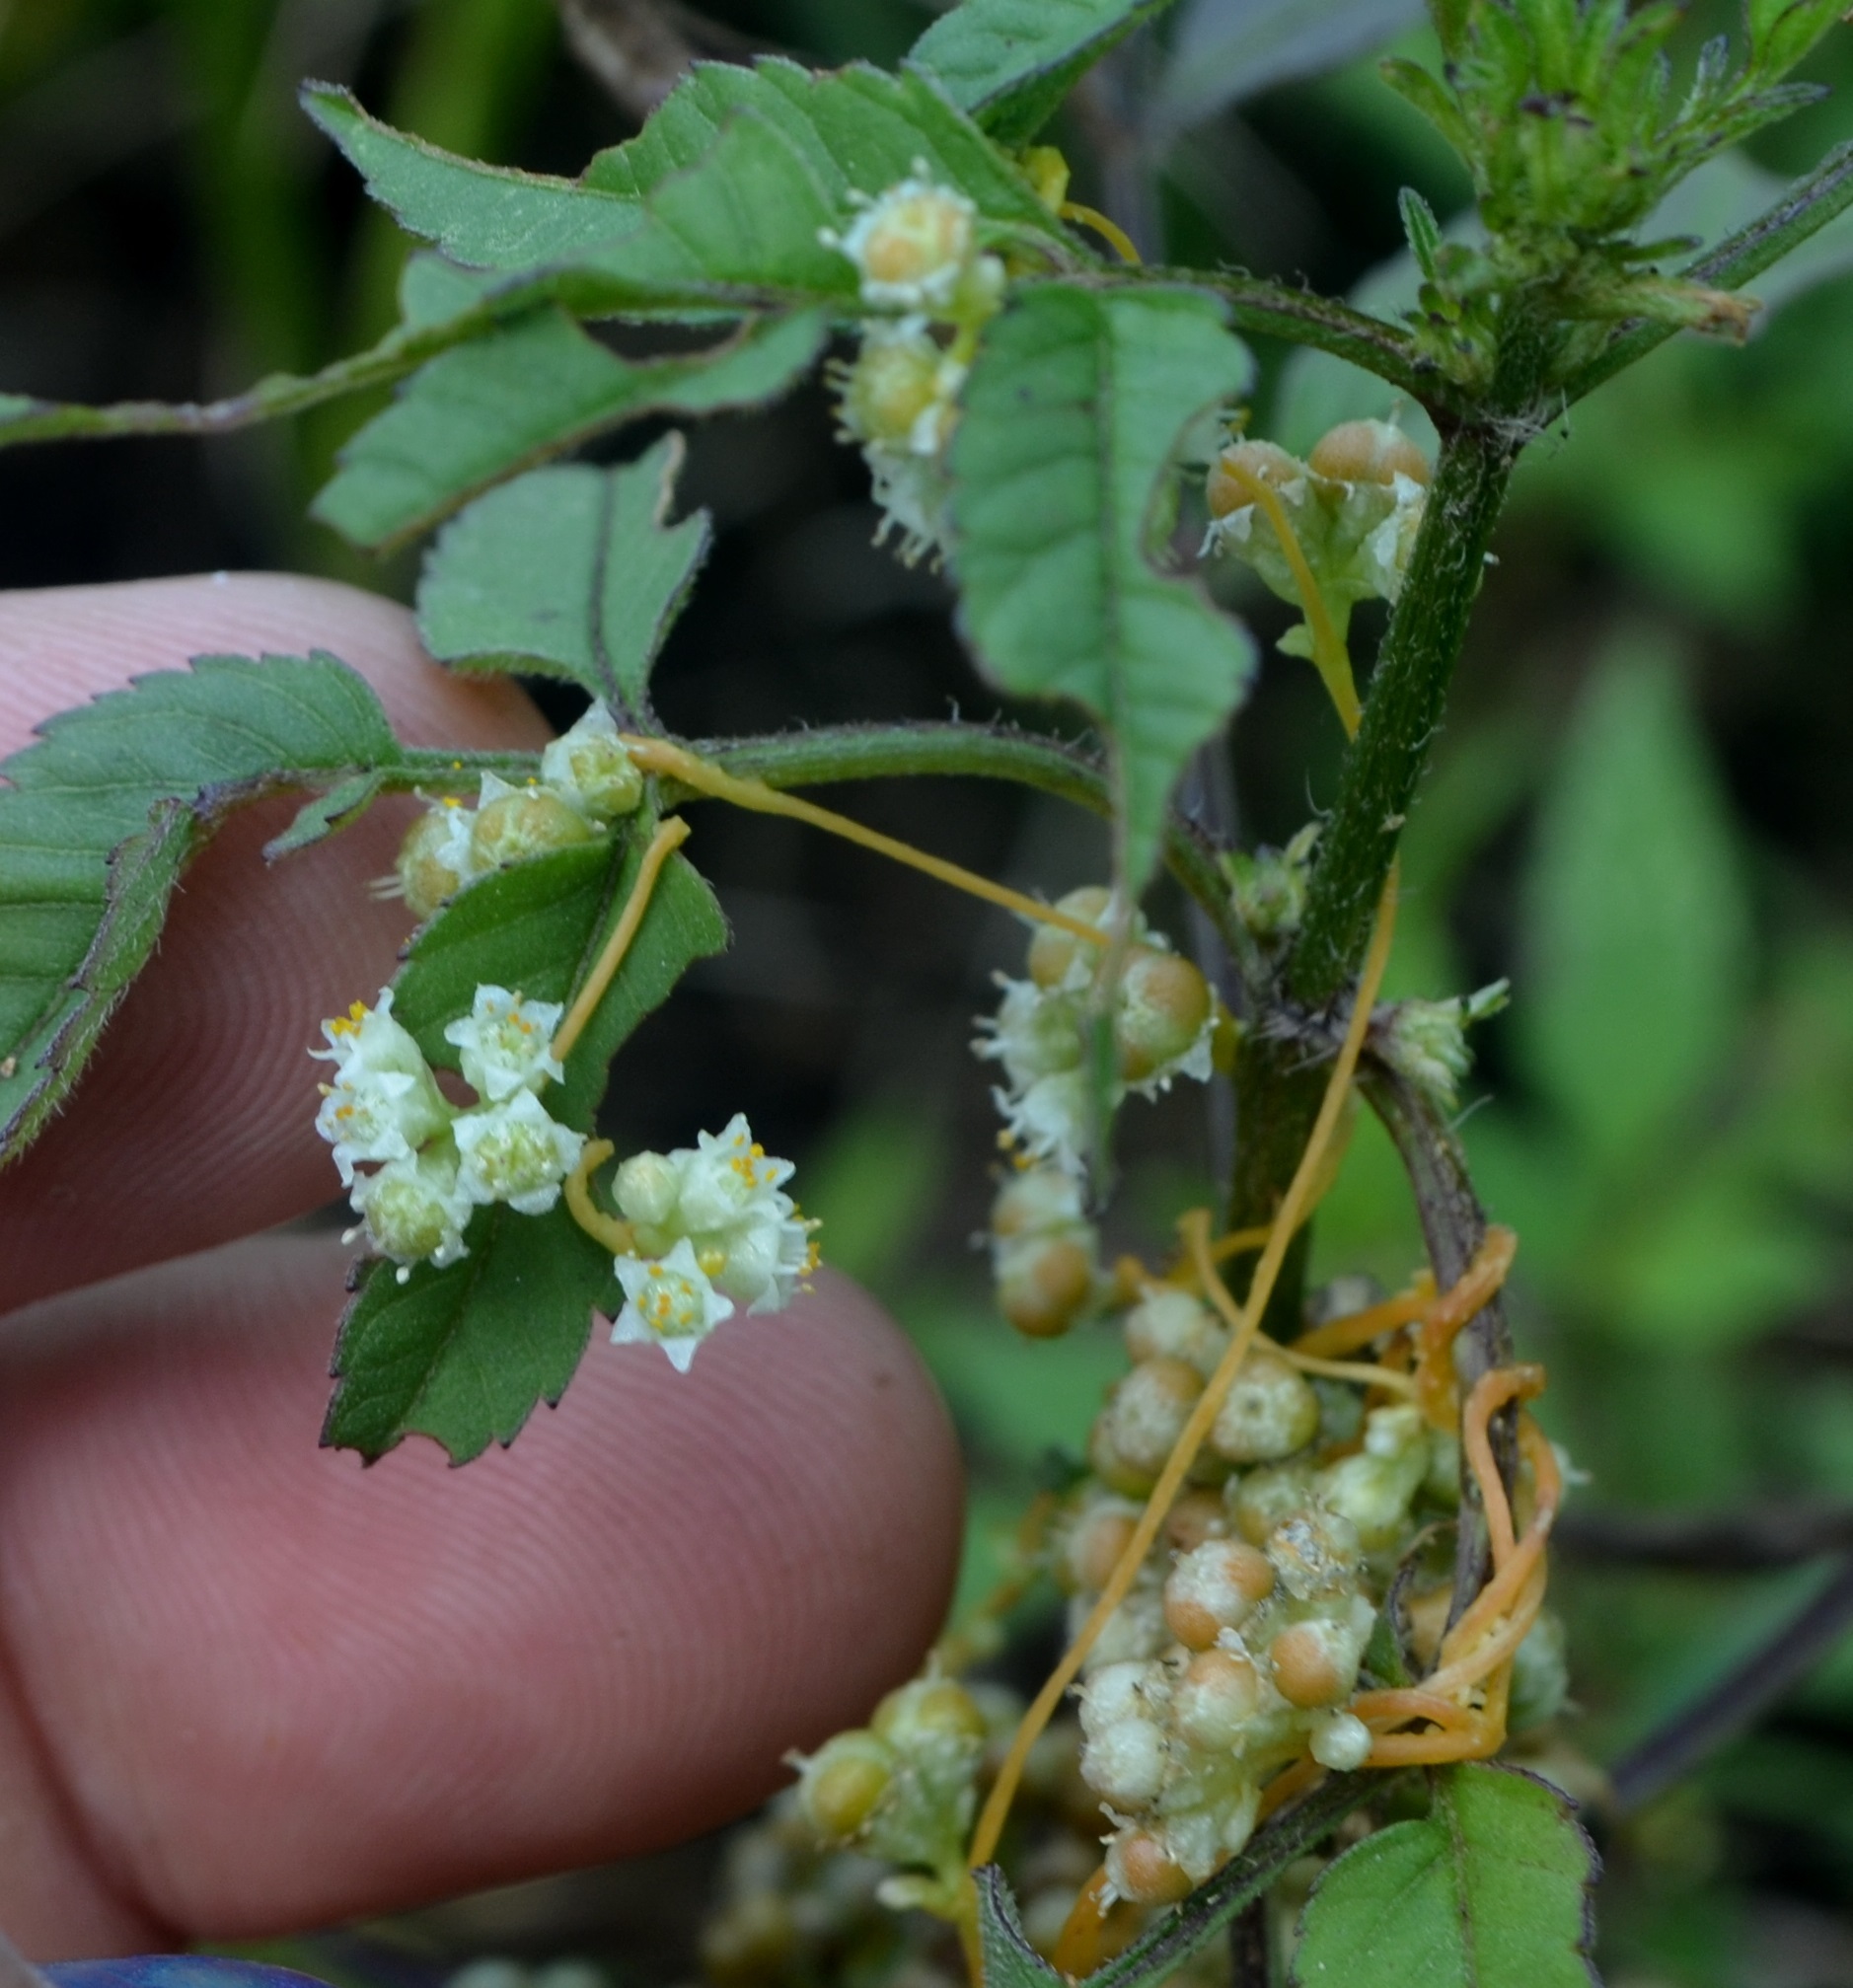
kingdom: Plantae
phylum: Tracheophyta
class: Magnoliopsida
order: Solanales
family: Convolvulaceae
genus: Cuscuta
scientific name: Cuscuta campestris
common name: Yellow dodder
